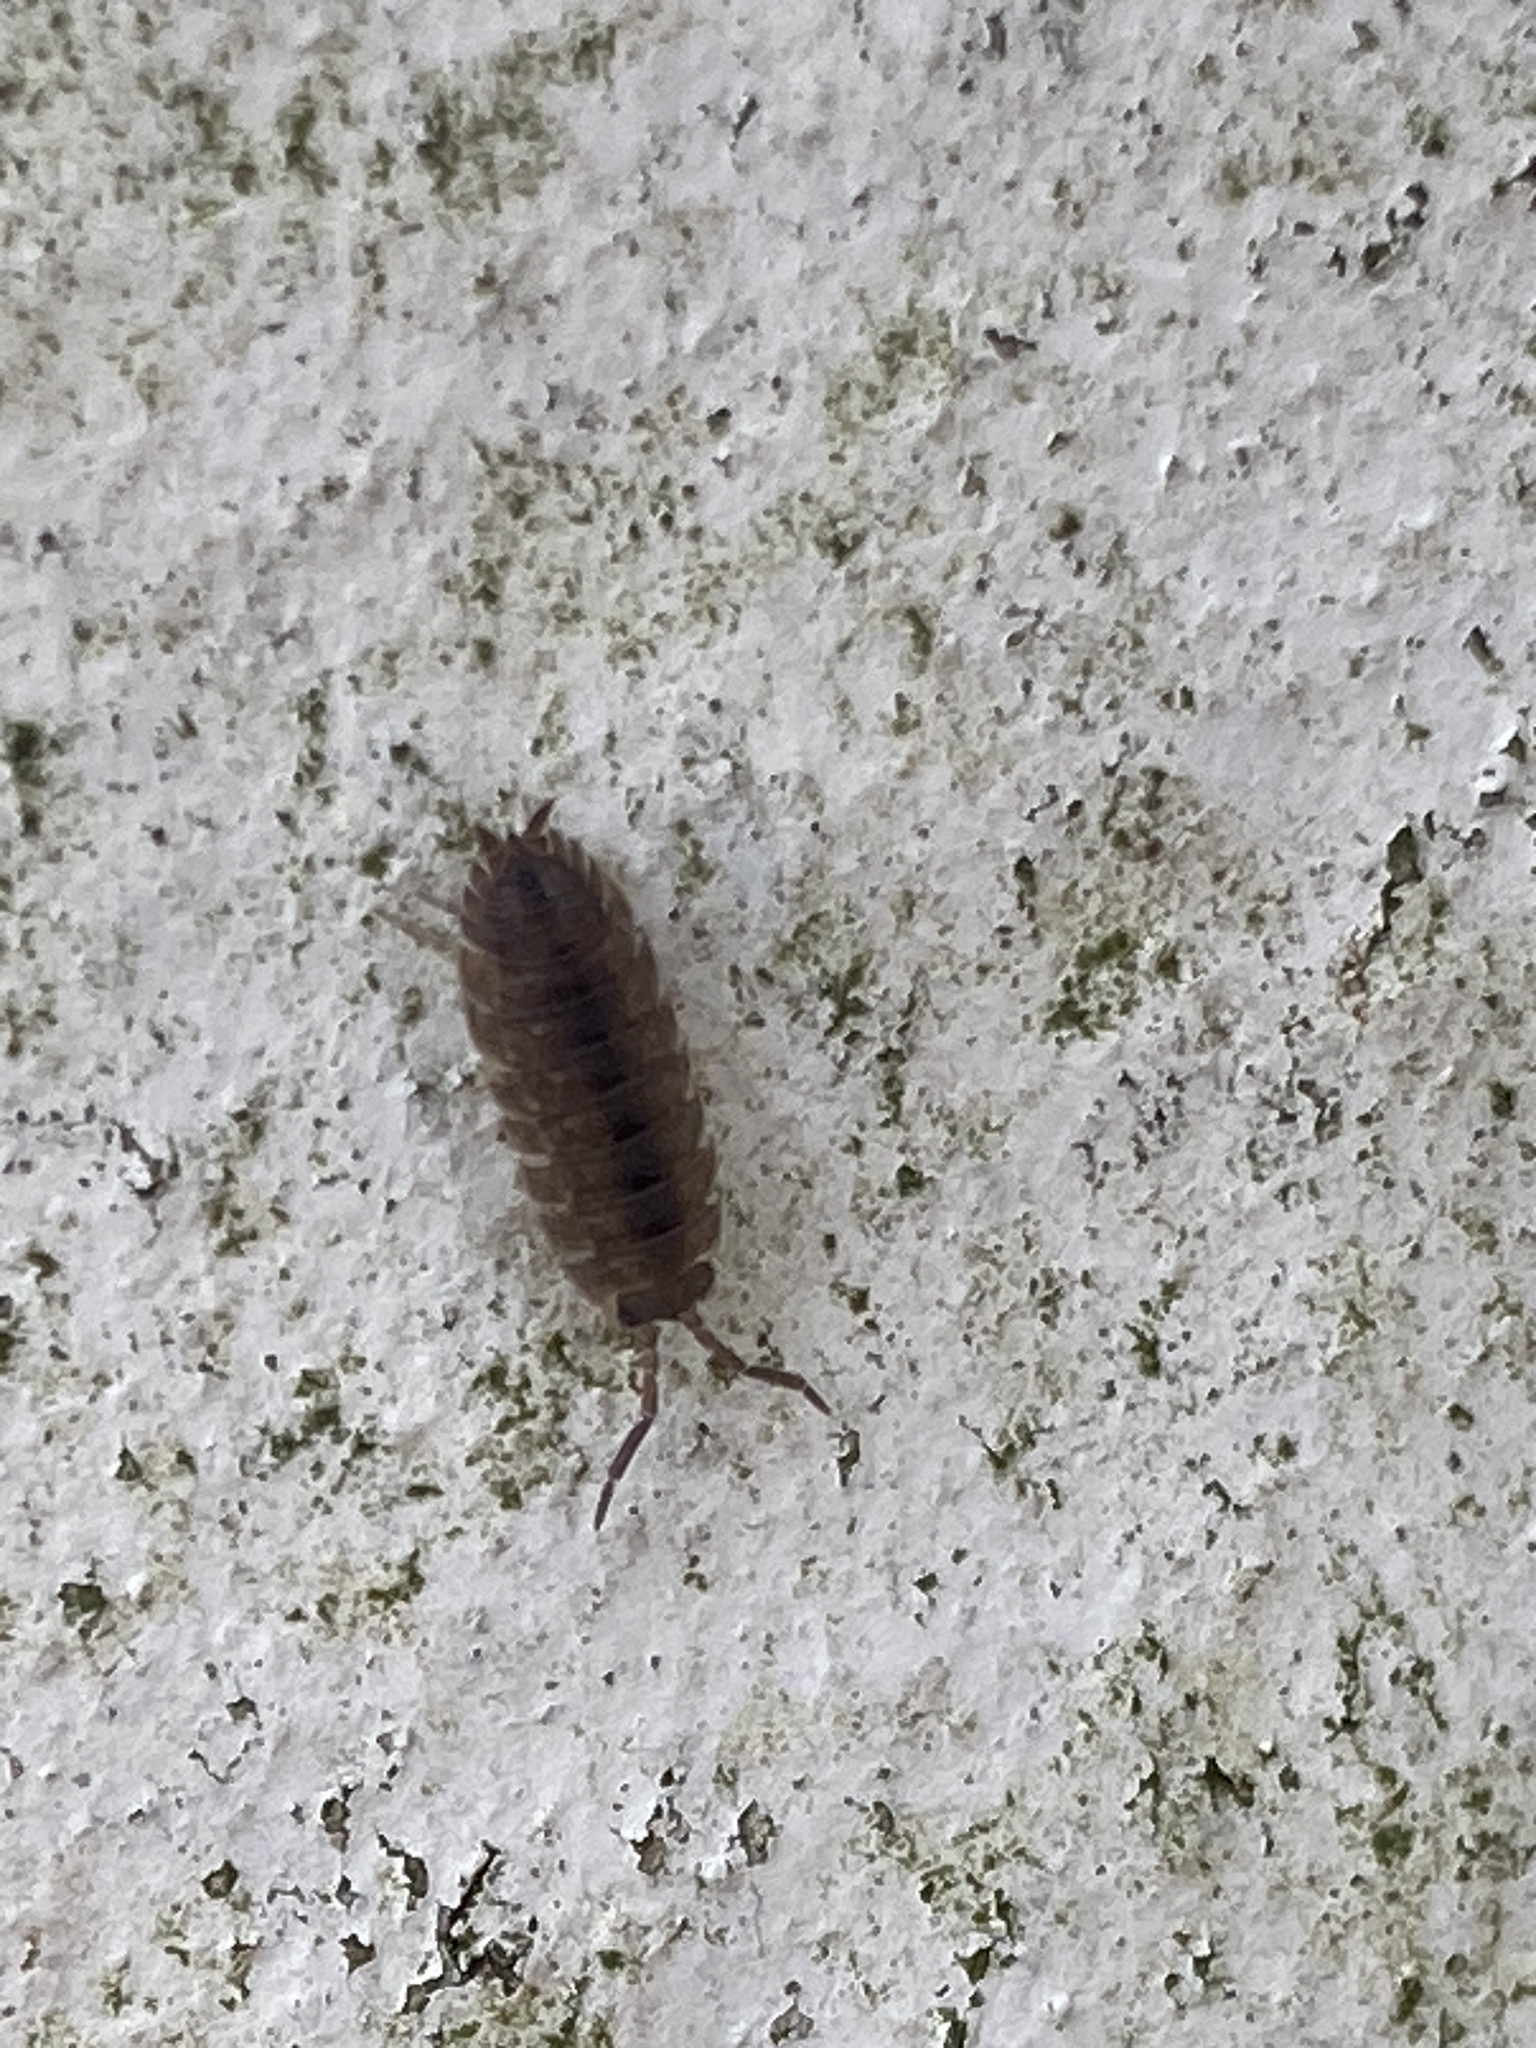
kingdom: Animalia
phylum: Arthropoda
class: Malacostraca
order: Isopoda
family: Porcellionidae
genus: Porcellio
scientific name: Porcellio scaber
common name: Common rough woodlouse
